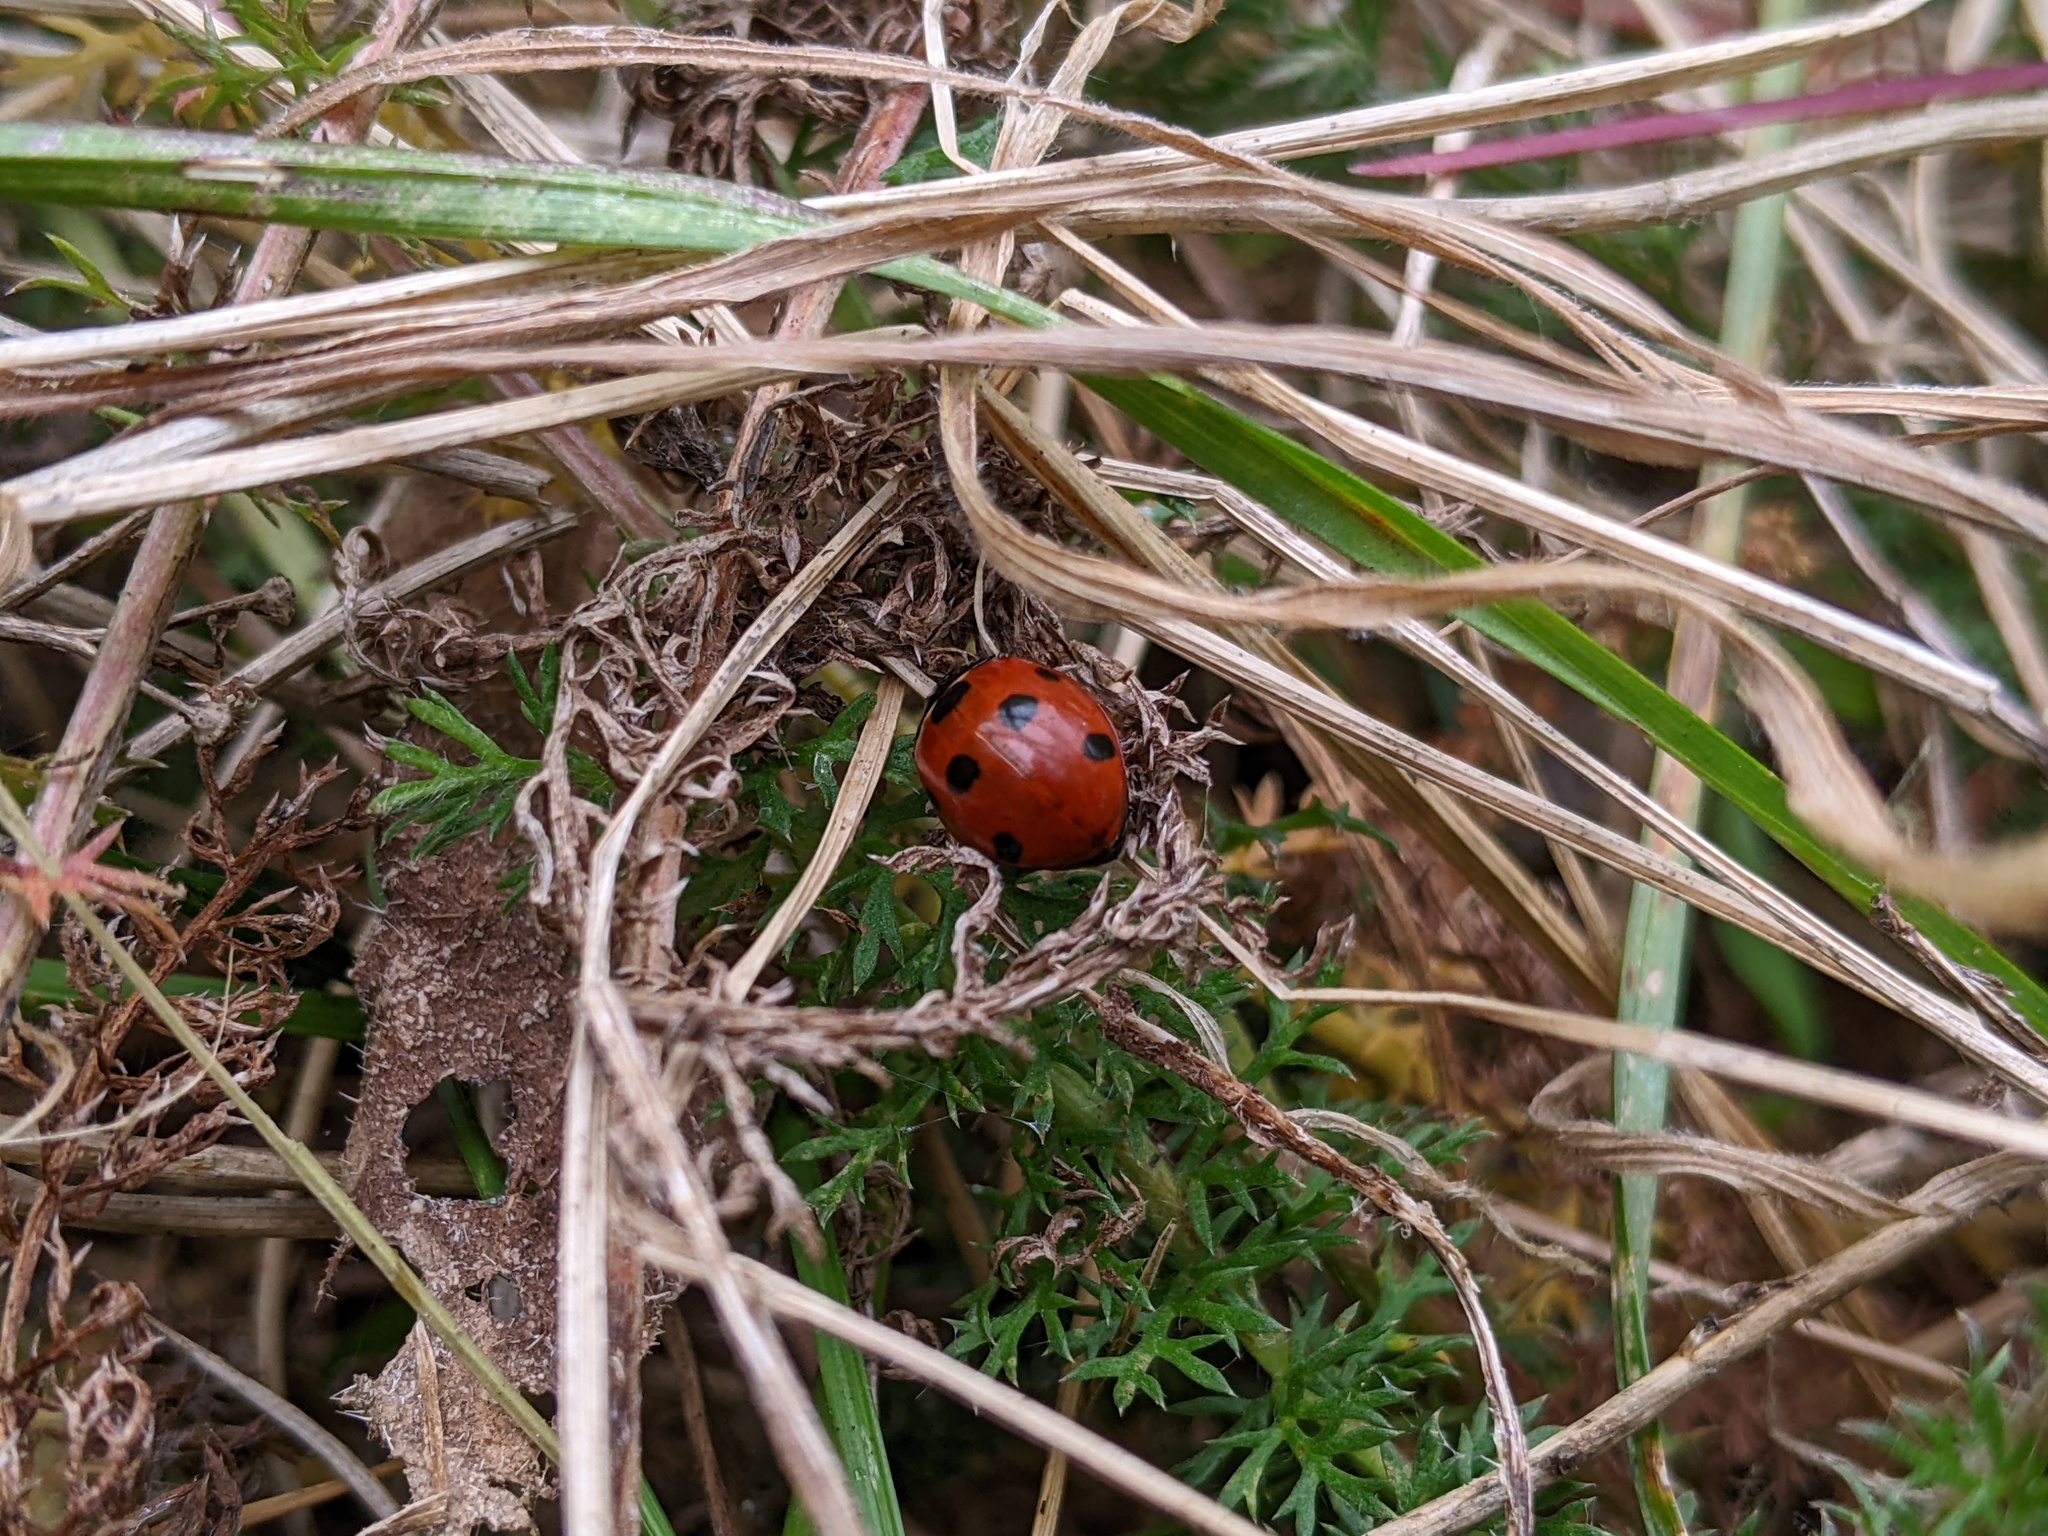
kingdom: Animalia
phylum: Arthropoda
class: Insecta
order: Coleoptera
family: Coccinellidae
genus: Coccinella
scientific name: Coccinella septempunctata
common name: Sevenspotted lady beetle
